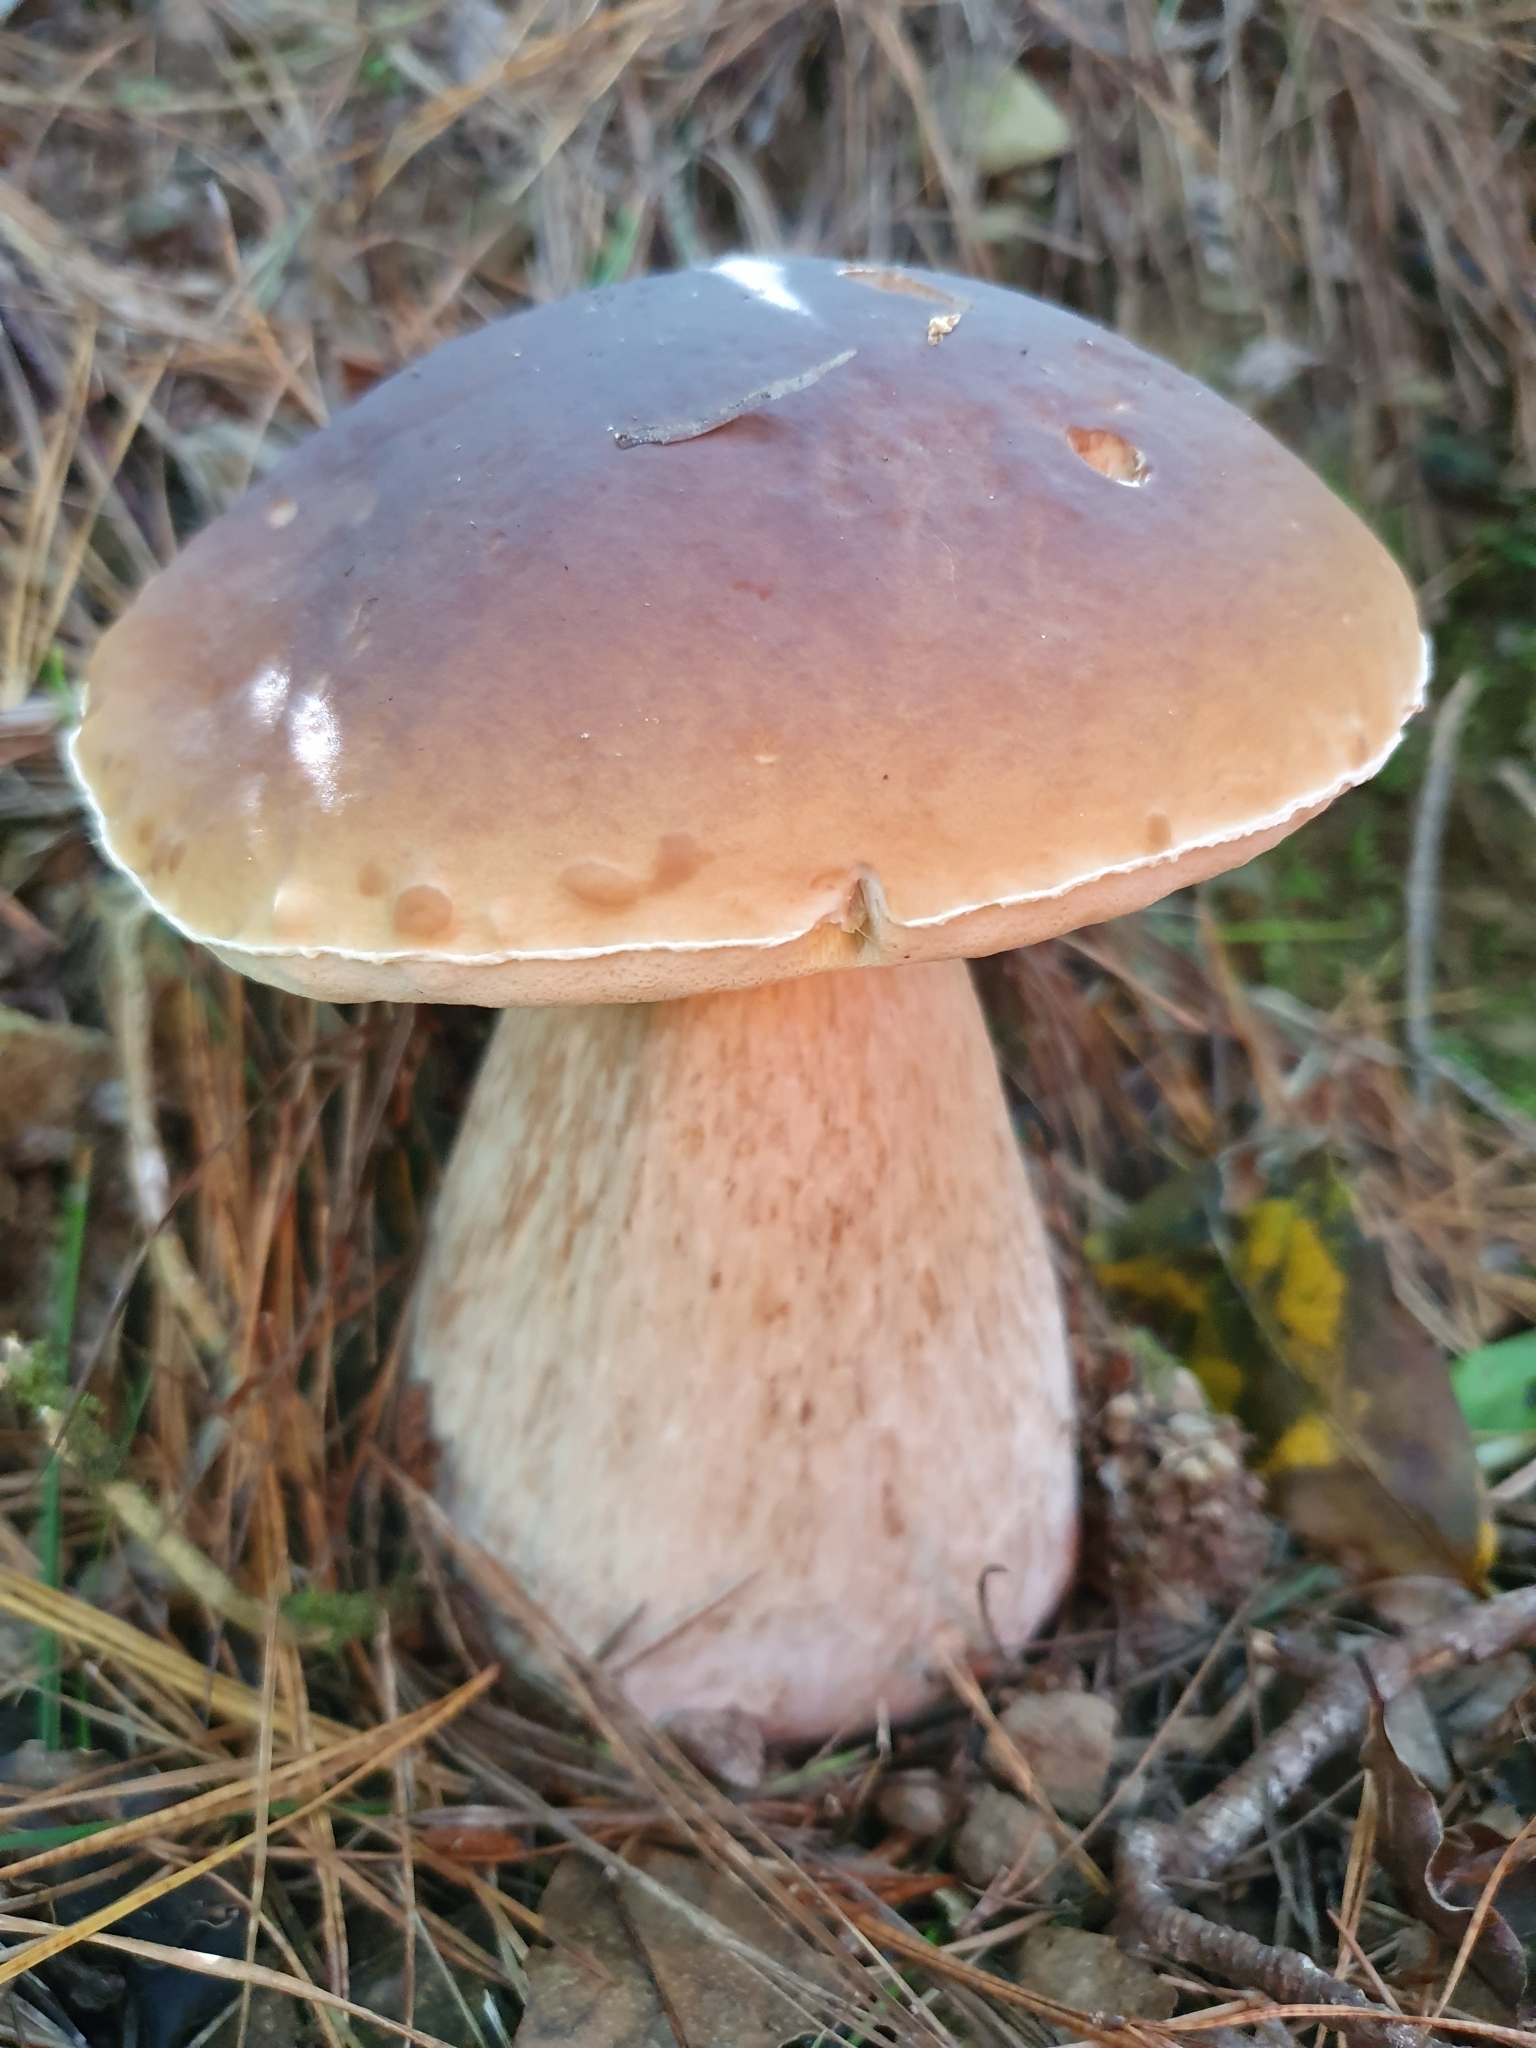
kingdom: Fungi
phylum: Basidiomycota
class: Agaricomycetes
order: Boletales
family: Boletaceae
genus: Boletus
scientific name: Boletus edulis
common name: Cep
